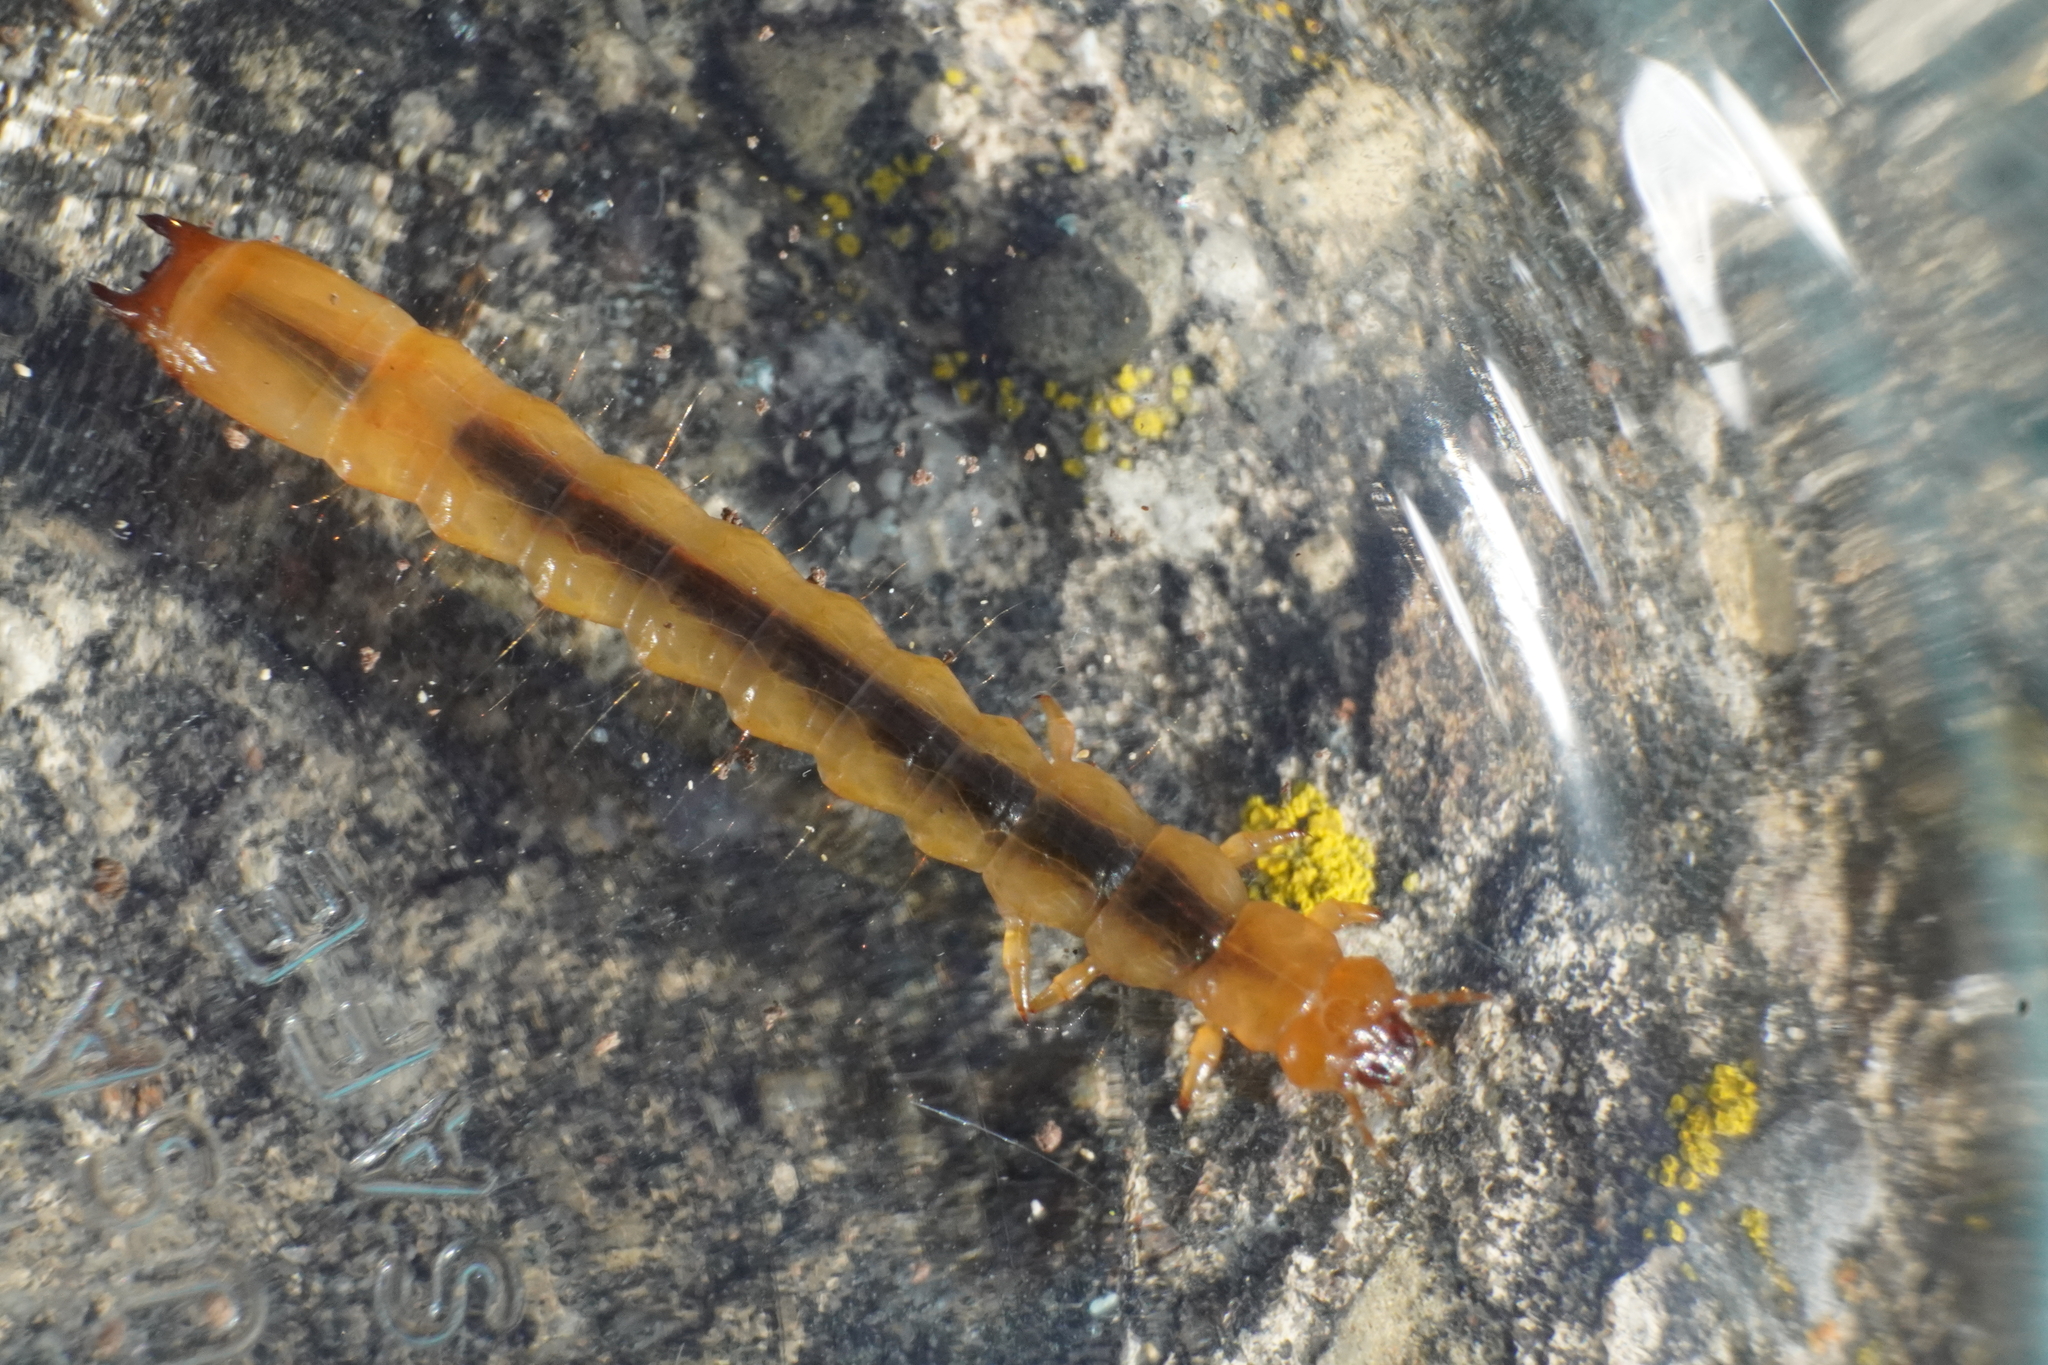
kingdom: Animalia
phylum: Arthropoda
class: Insecta
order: Coleoptera
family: Pyrochroidae
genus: Neopyrochroa
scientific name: Neopyrochroa flabellata
